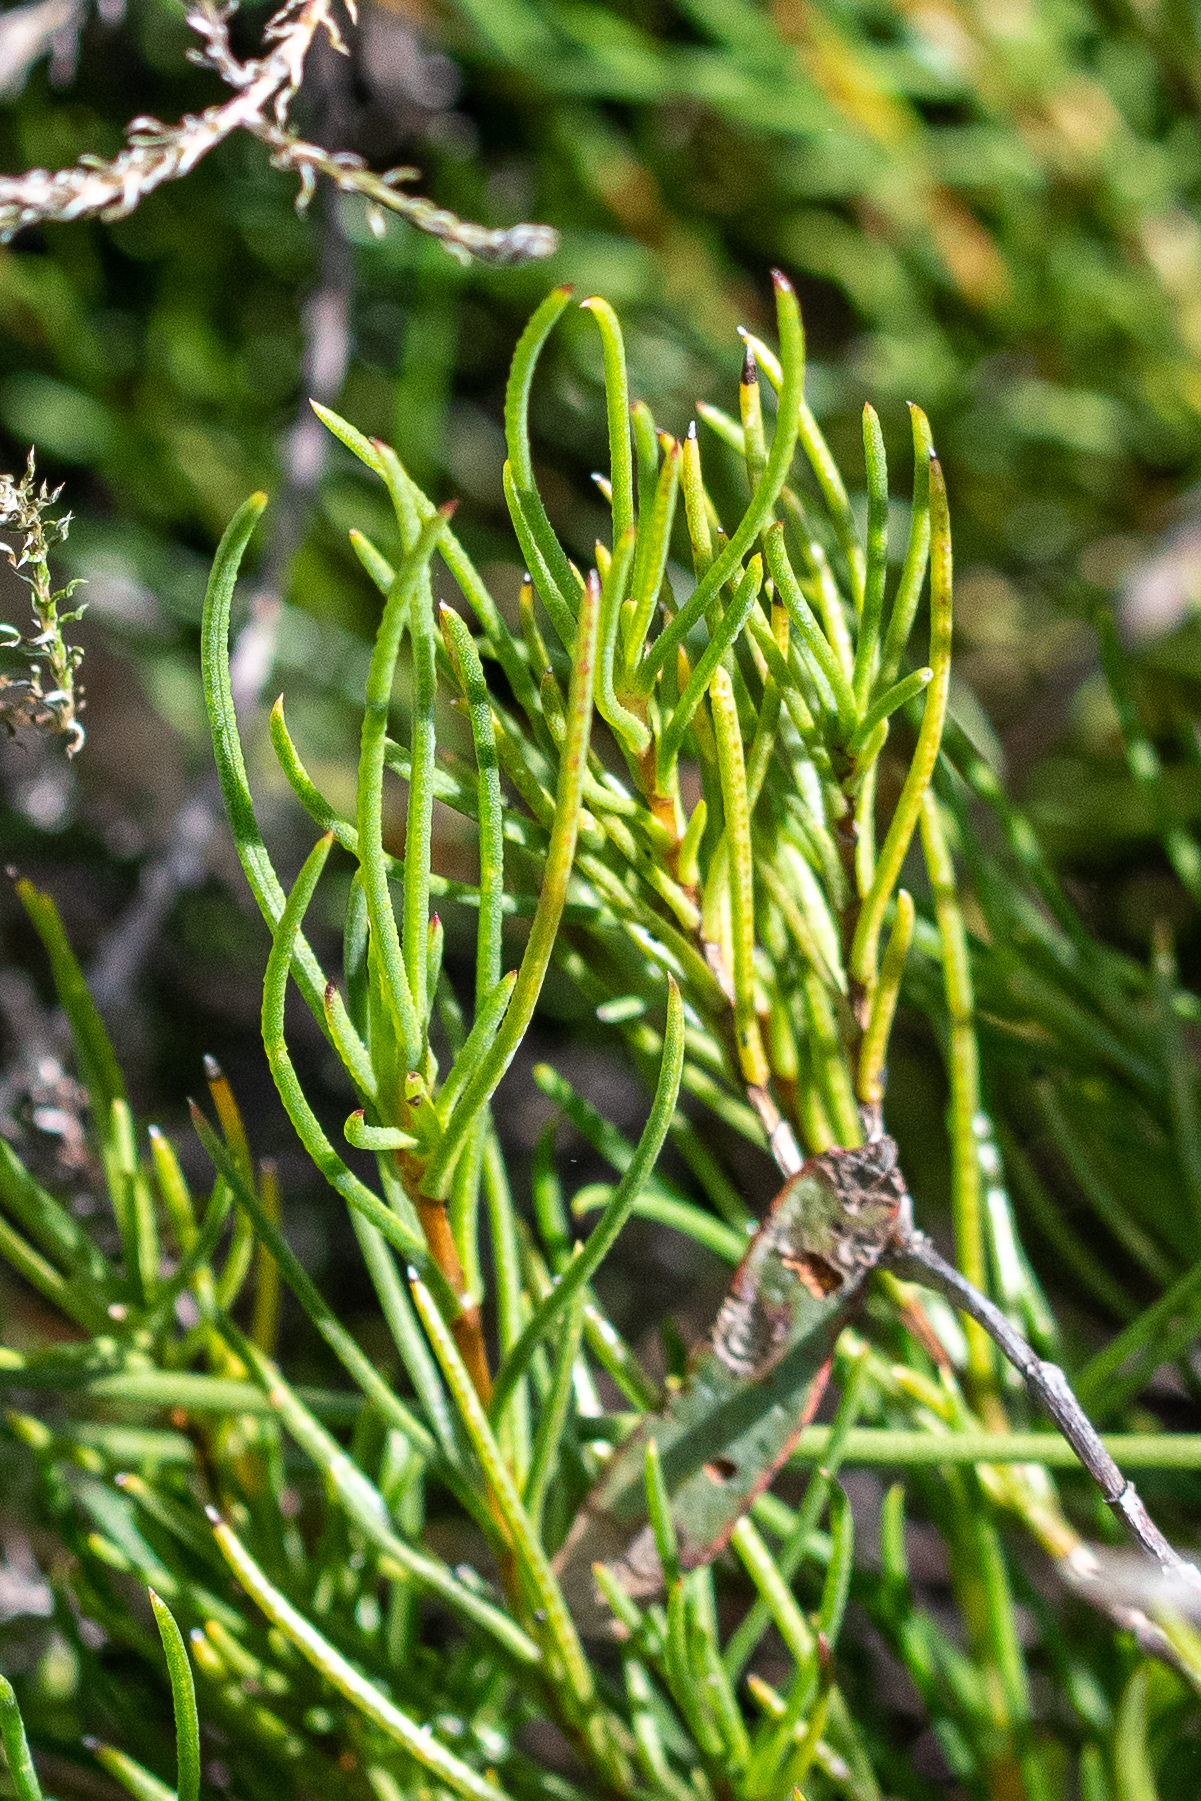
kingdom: Plantae
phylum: Tracheophyta
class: Magnoliopsida
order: Asterales
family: Asteraceae
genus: Pteronia
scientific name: Pteronia tenuifolia
